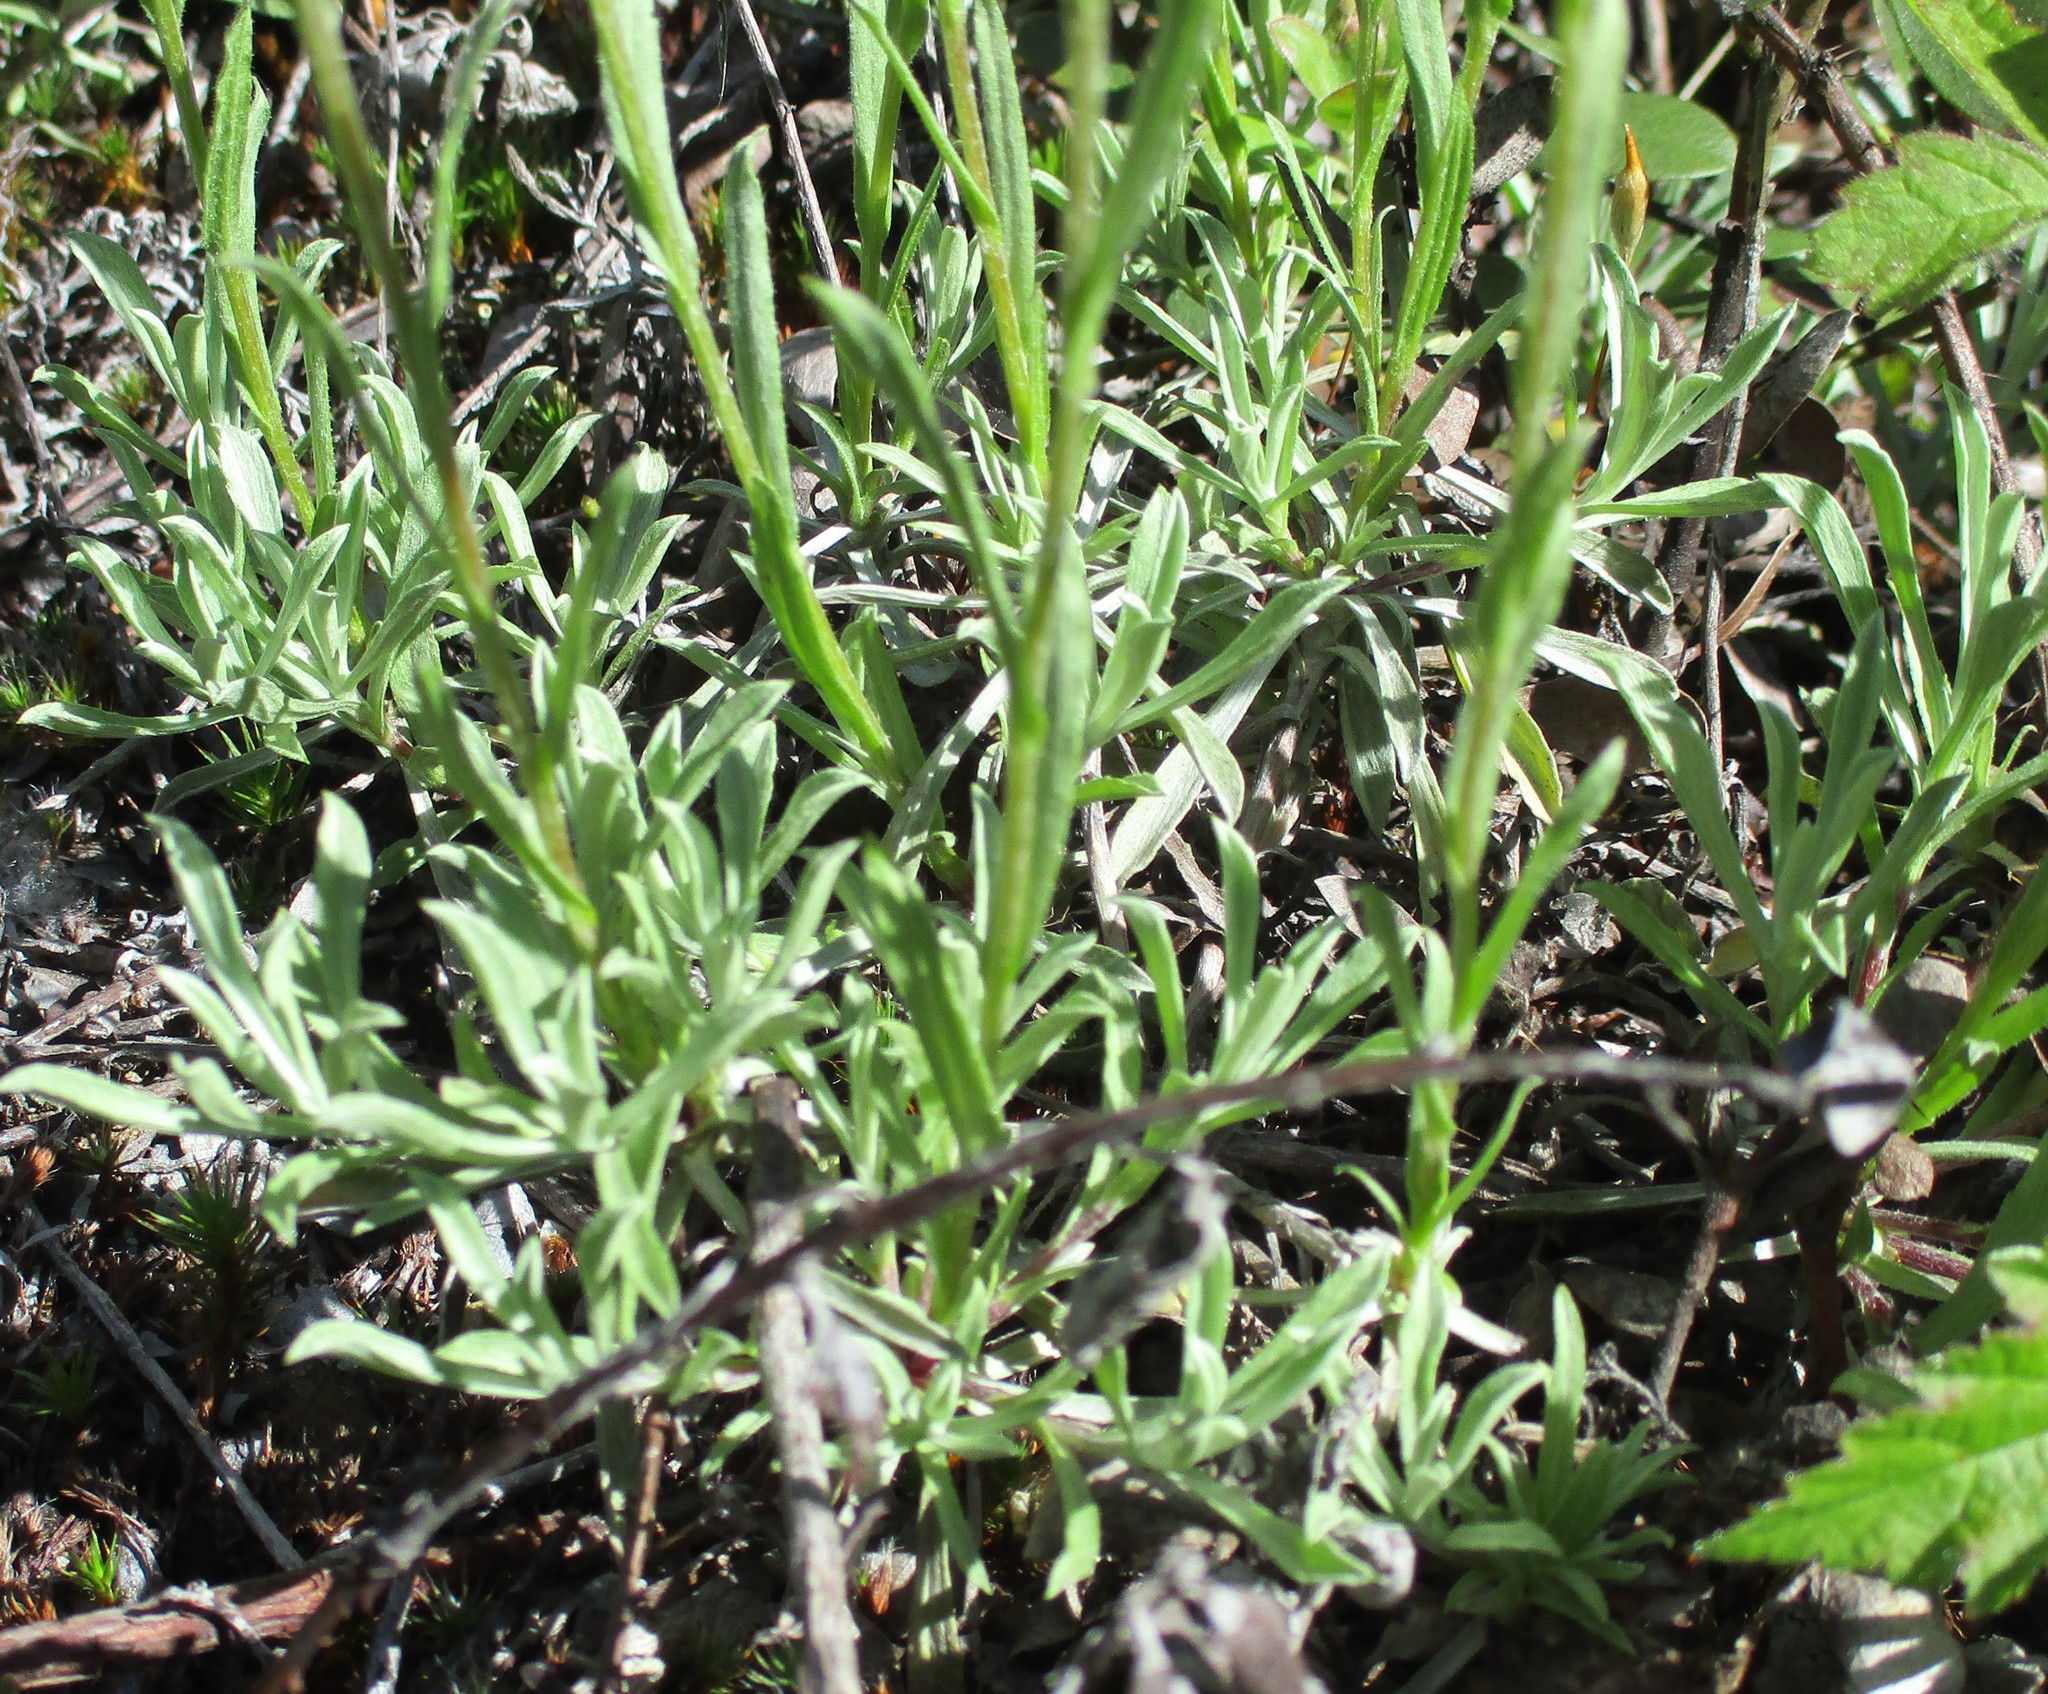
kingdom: Plantae
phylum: Tracheophyta
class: Magnoliopsida
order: Asterales
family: Asteraceae
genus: Antennaria
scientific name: Antennaria rosea
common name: Rosy pussytoes
